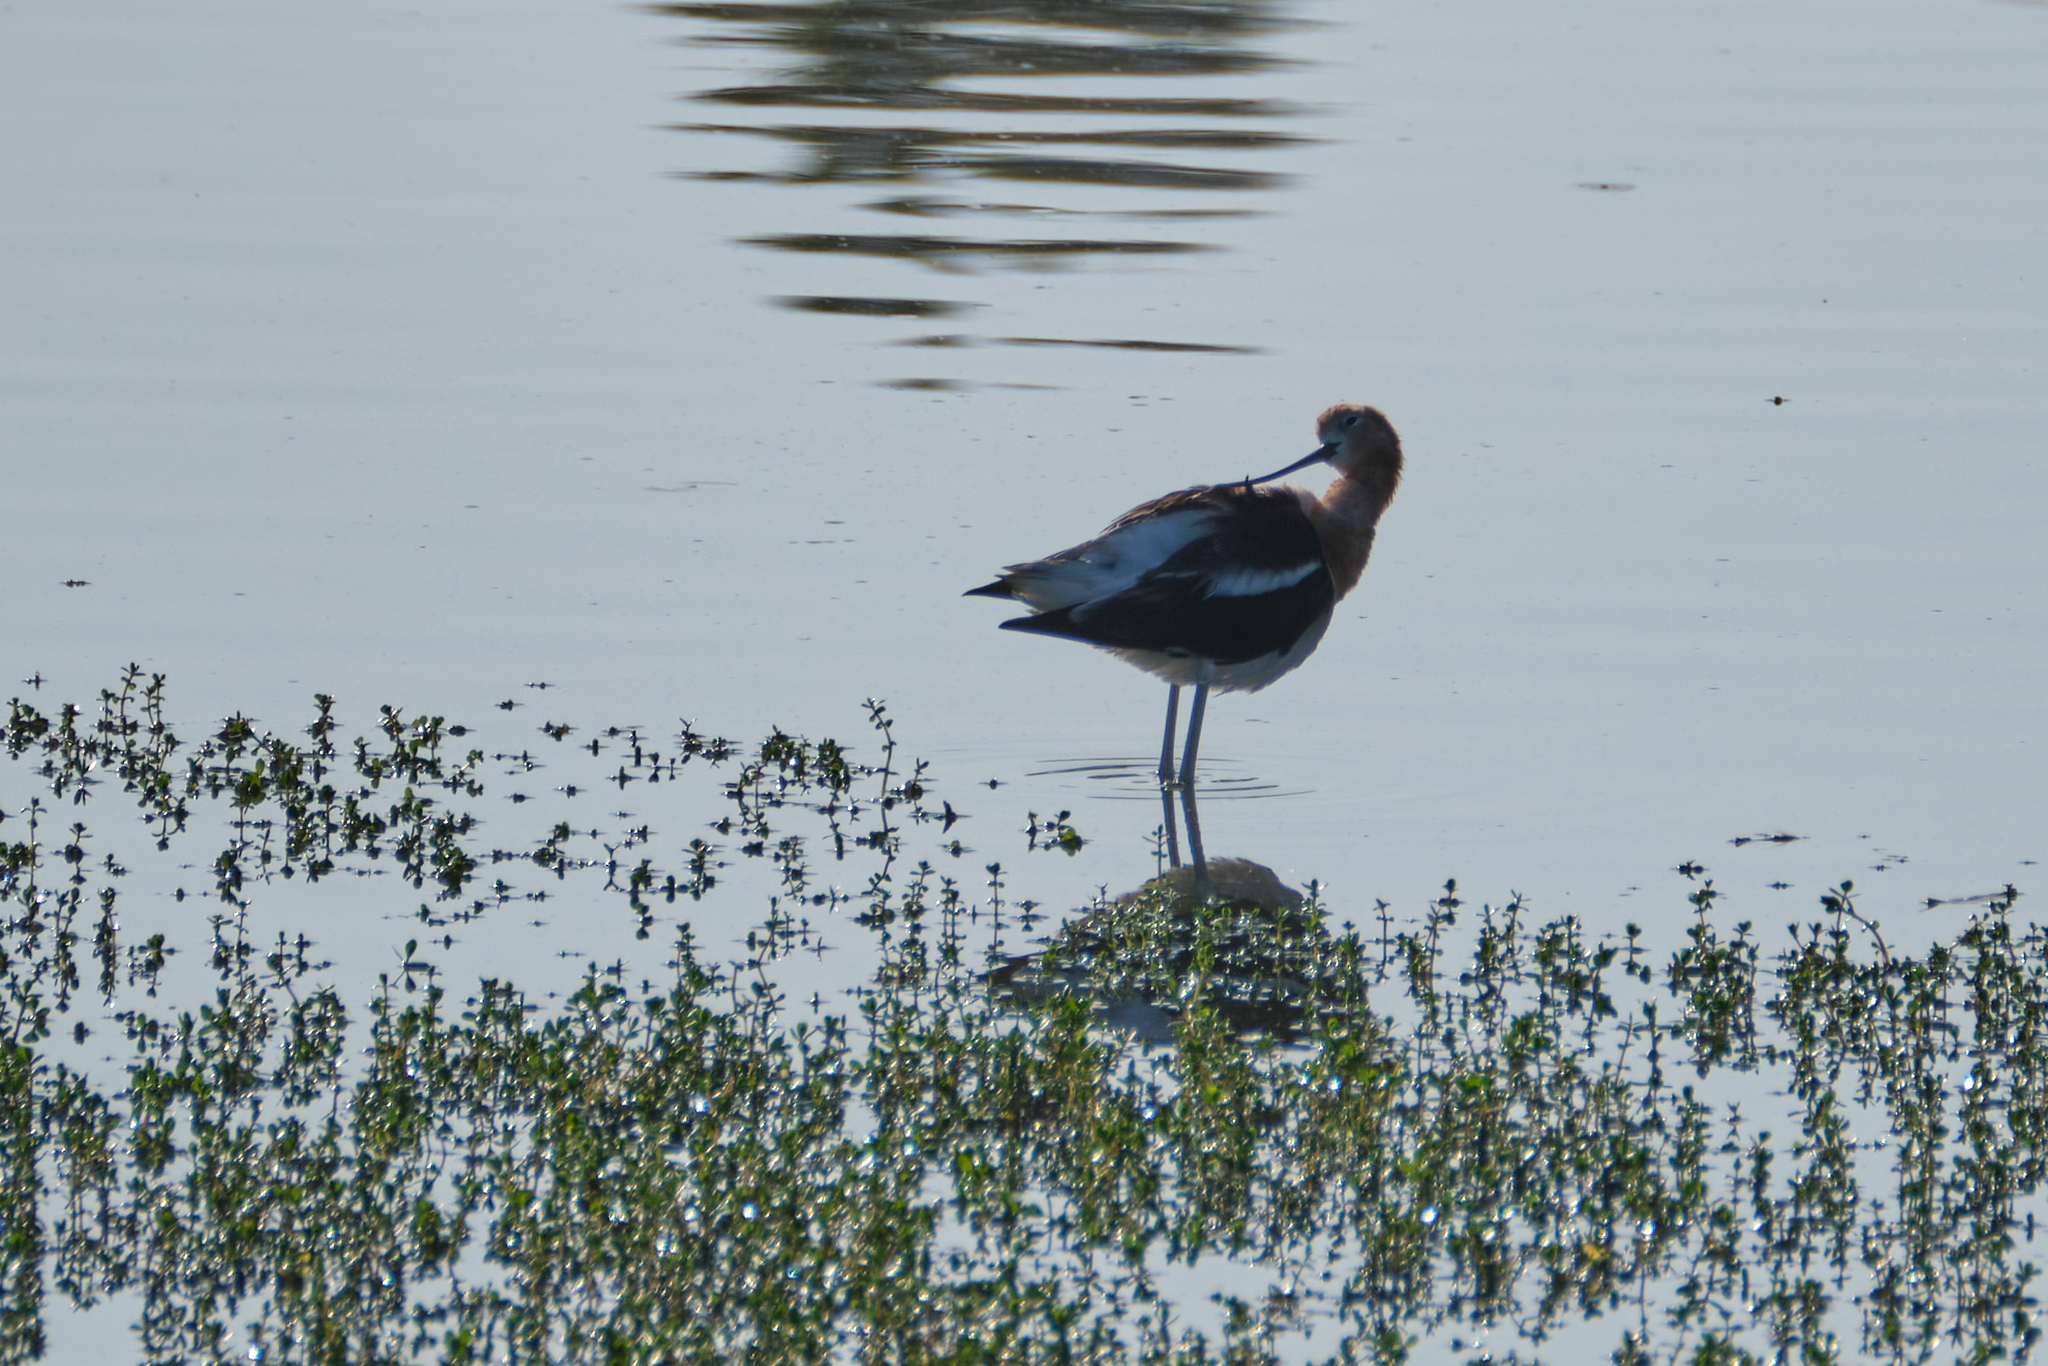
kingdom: Animalia
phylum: Chordata
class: Aves
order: Charadriiformes
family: Recurvirostridae
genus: Recurvirostra
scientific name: Recurvirostra americana
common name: American avocet
